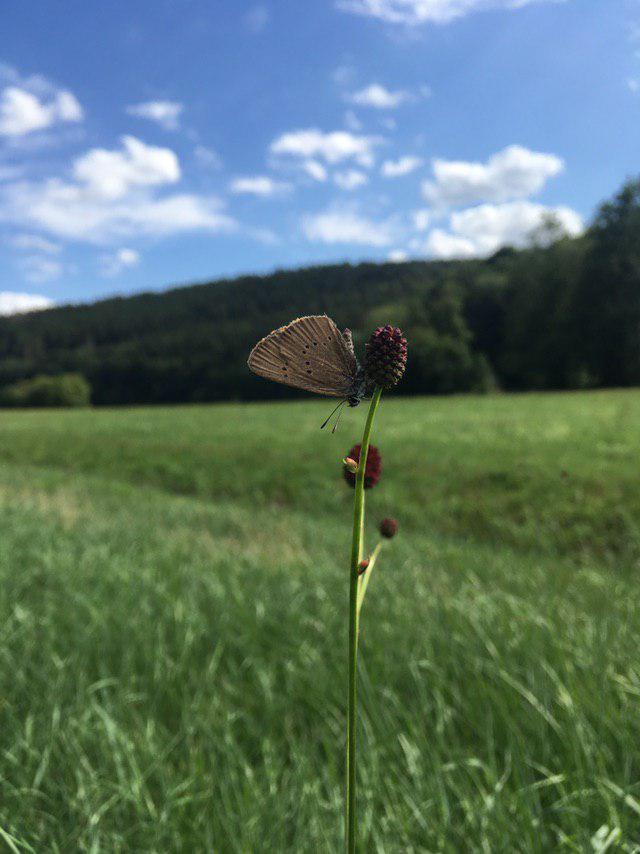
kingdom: Animalia
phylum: Arthropoda
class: Insecta
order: Lepidoptera
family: Lycaenidae
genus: Maculinea
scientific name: Maculinea nausithous
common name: Dusky large blue
